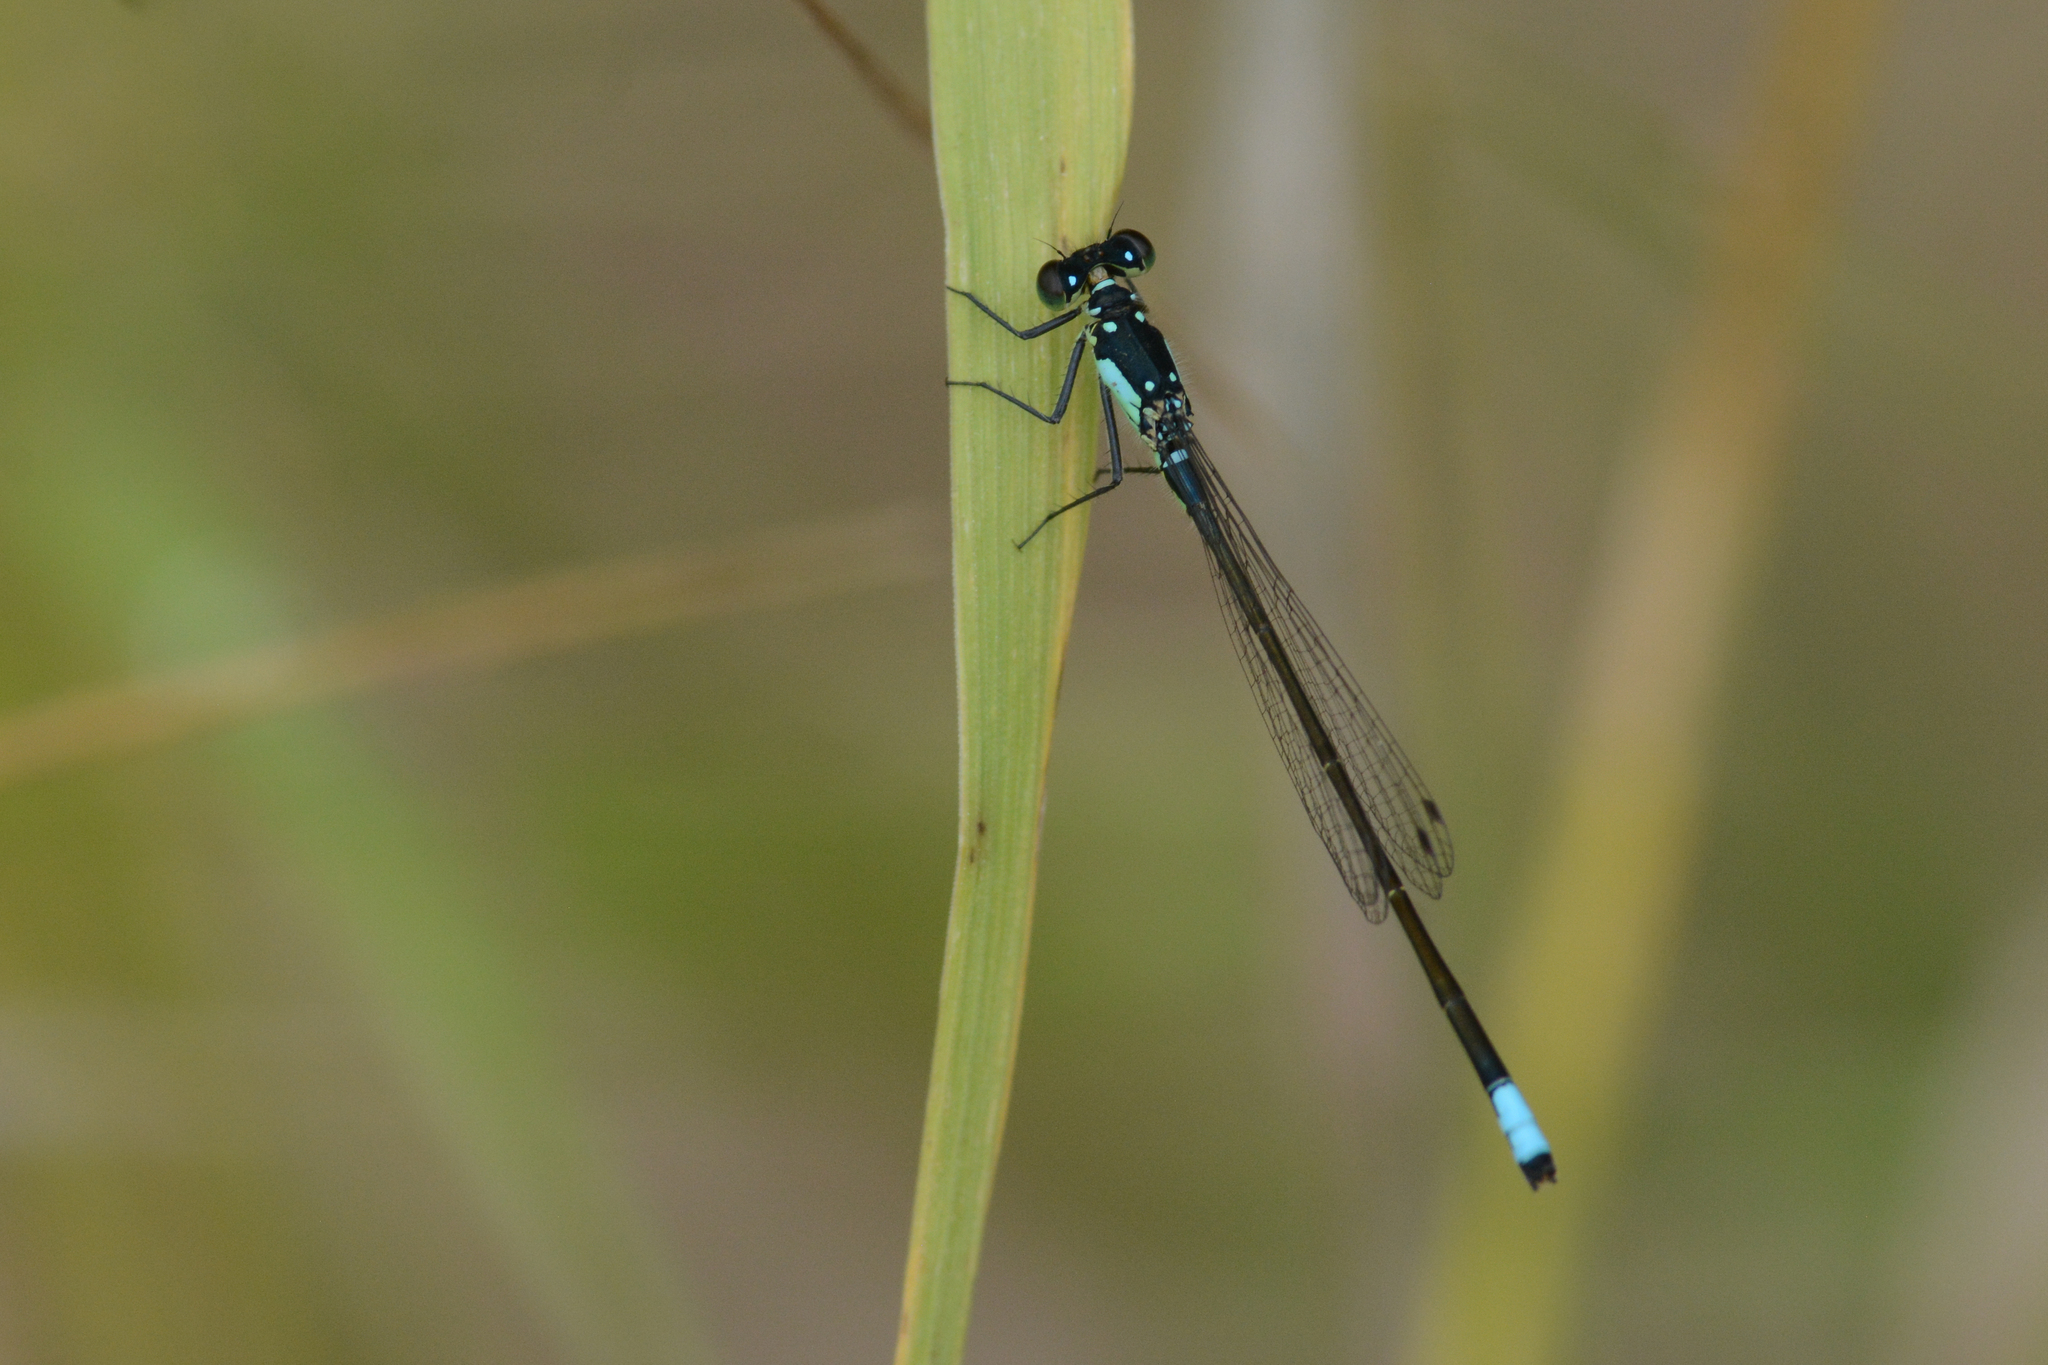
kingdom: Animalia
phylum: Arthropoda
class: Insecta
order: Odonata
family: Coenagrionidae
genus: Ischnura
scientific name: Ischnura cervula
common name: Pacific forktail
